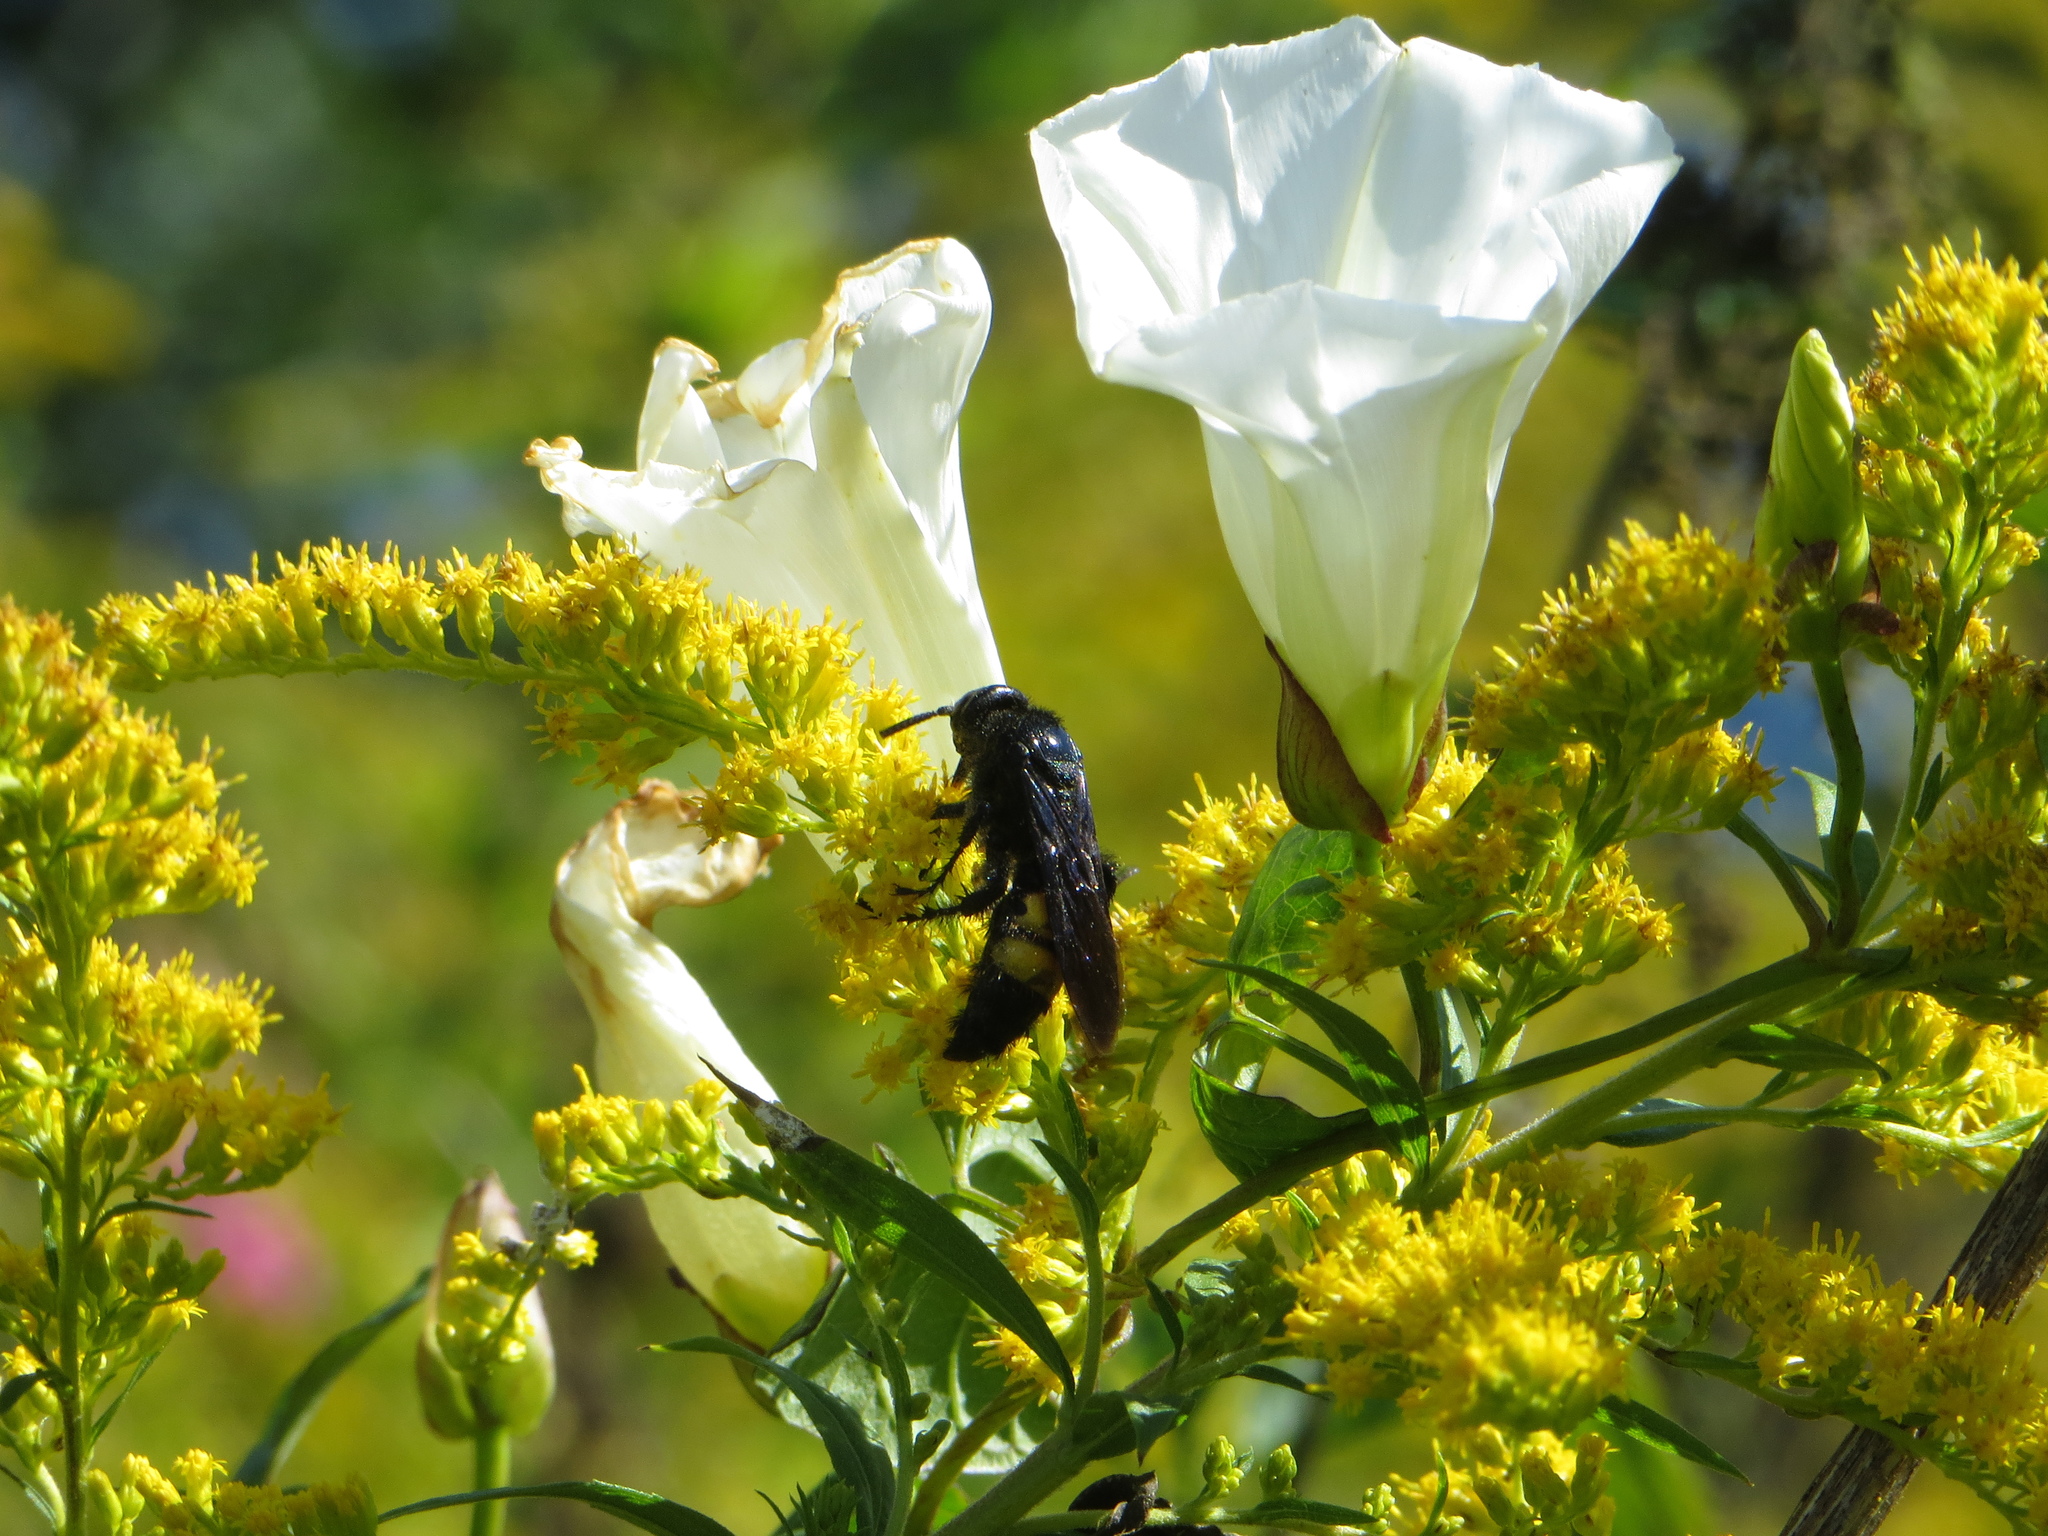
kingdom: Animalia
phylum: Arthropoda
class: Insecta
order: Hymenoptera
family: Scoliidae
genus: Scolia
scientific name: Scolia hirta
